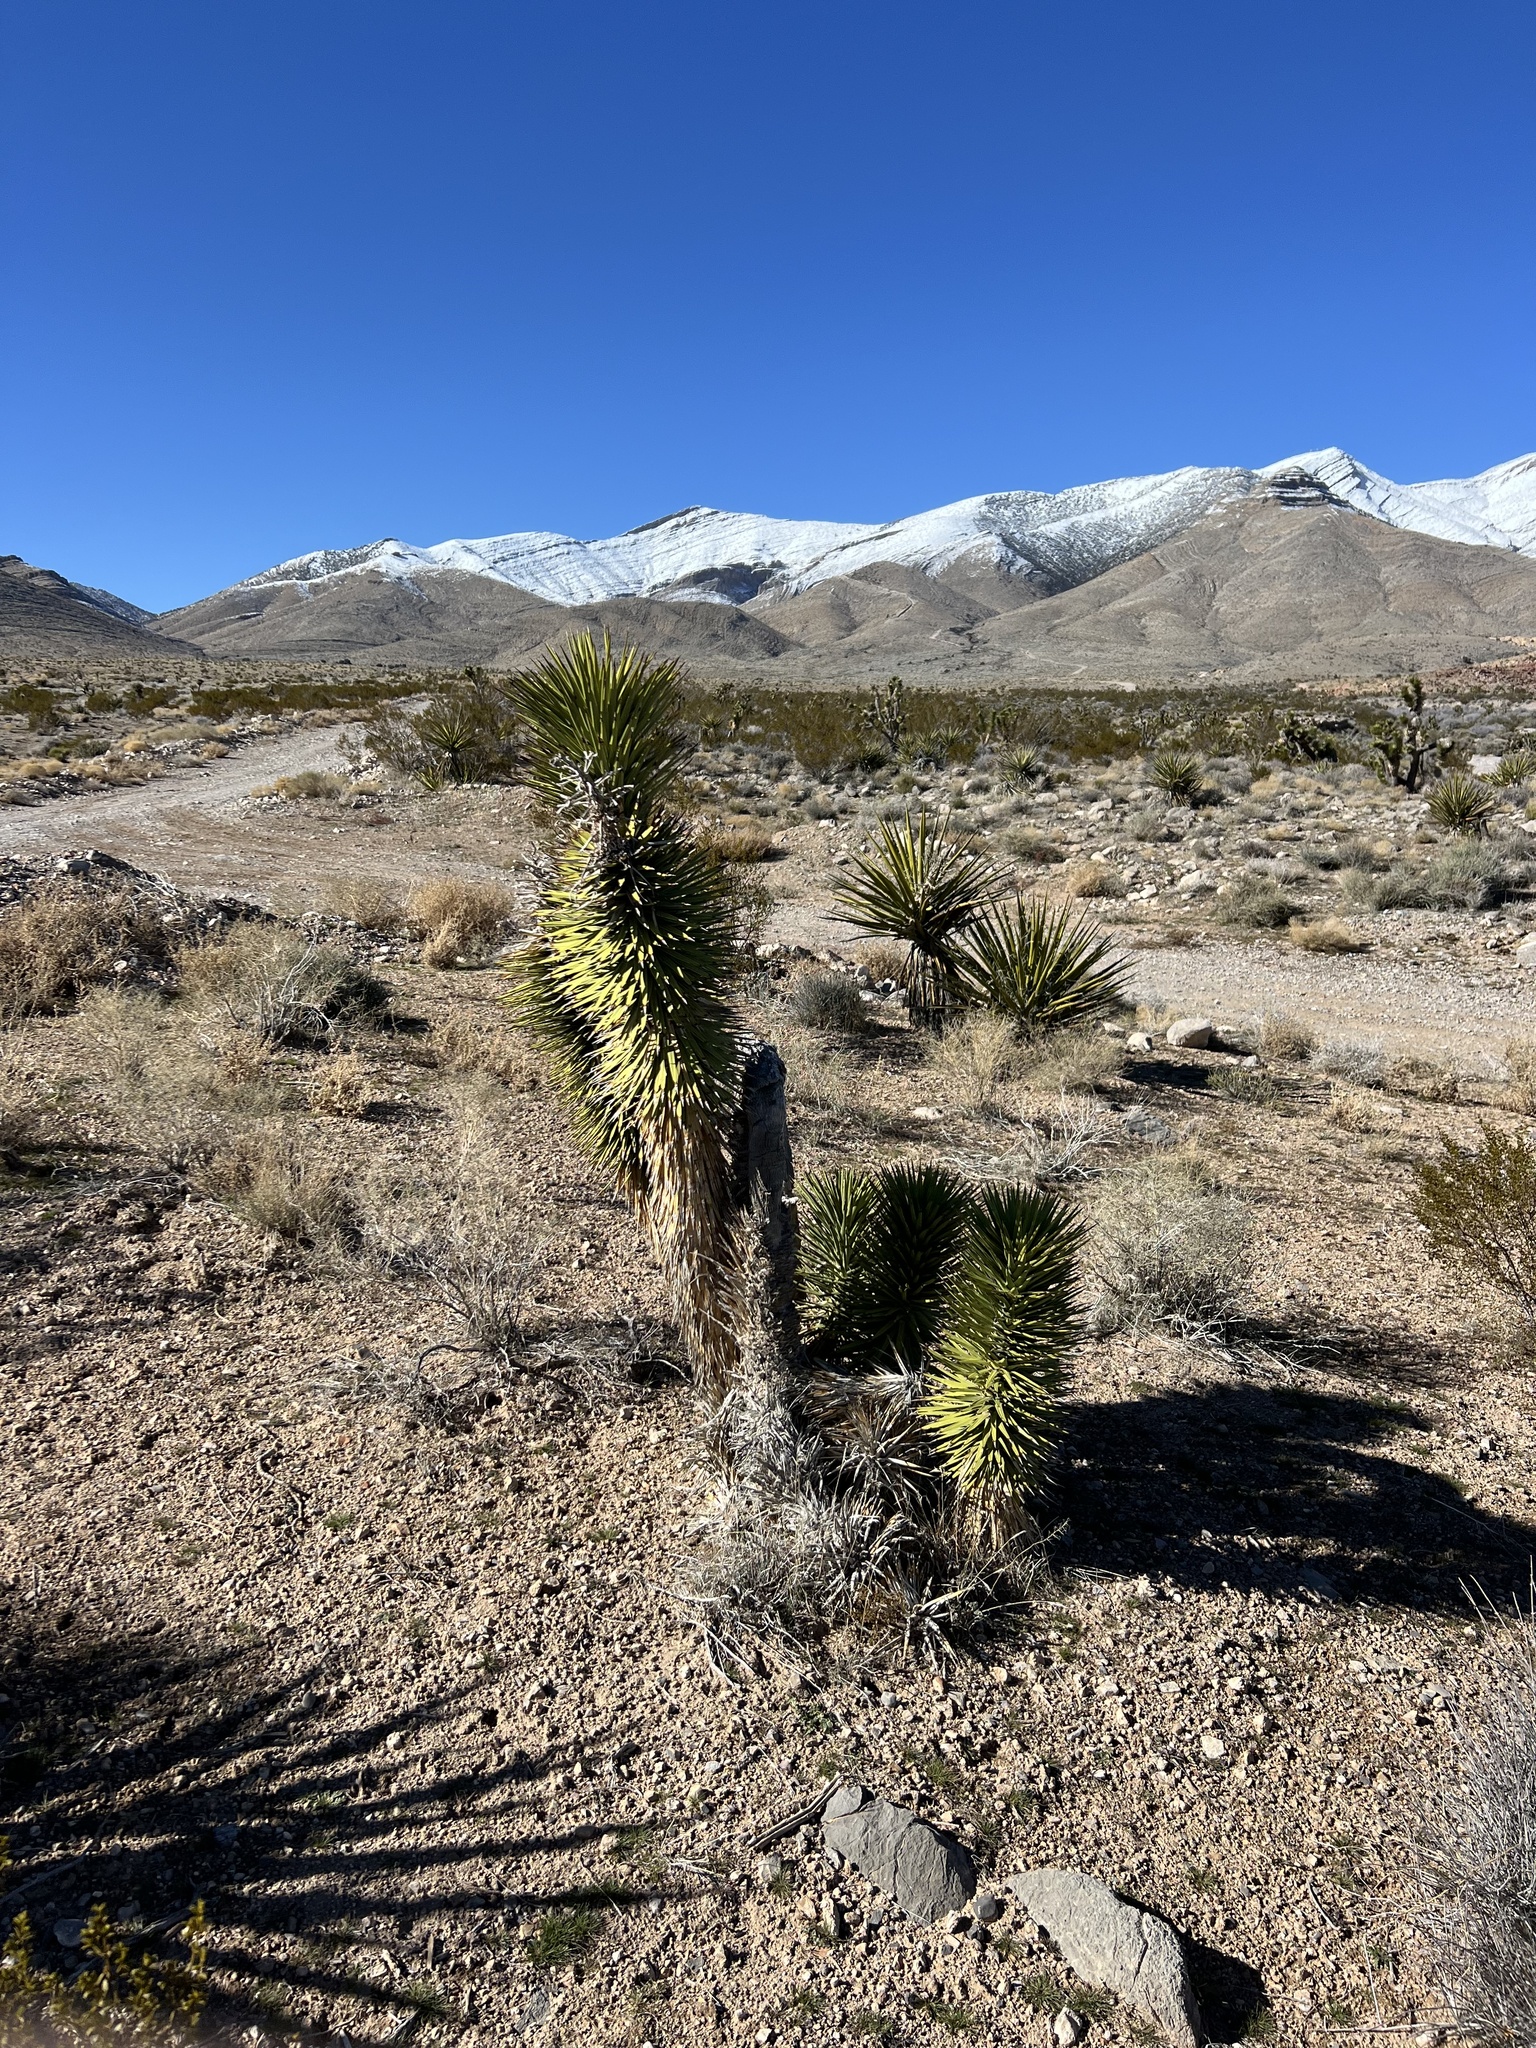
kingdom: Plantae
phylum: Tracheophyta
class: Liliopsida
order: Asparagales
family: Asparagaceae
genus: Yucca
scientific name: Yucca brevifolia
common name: Joshua tree
